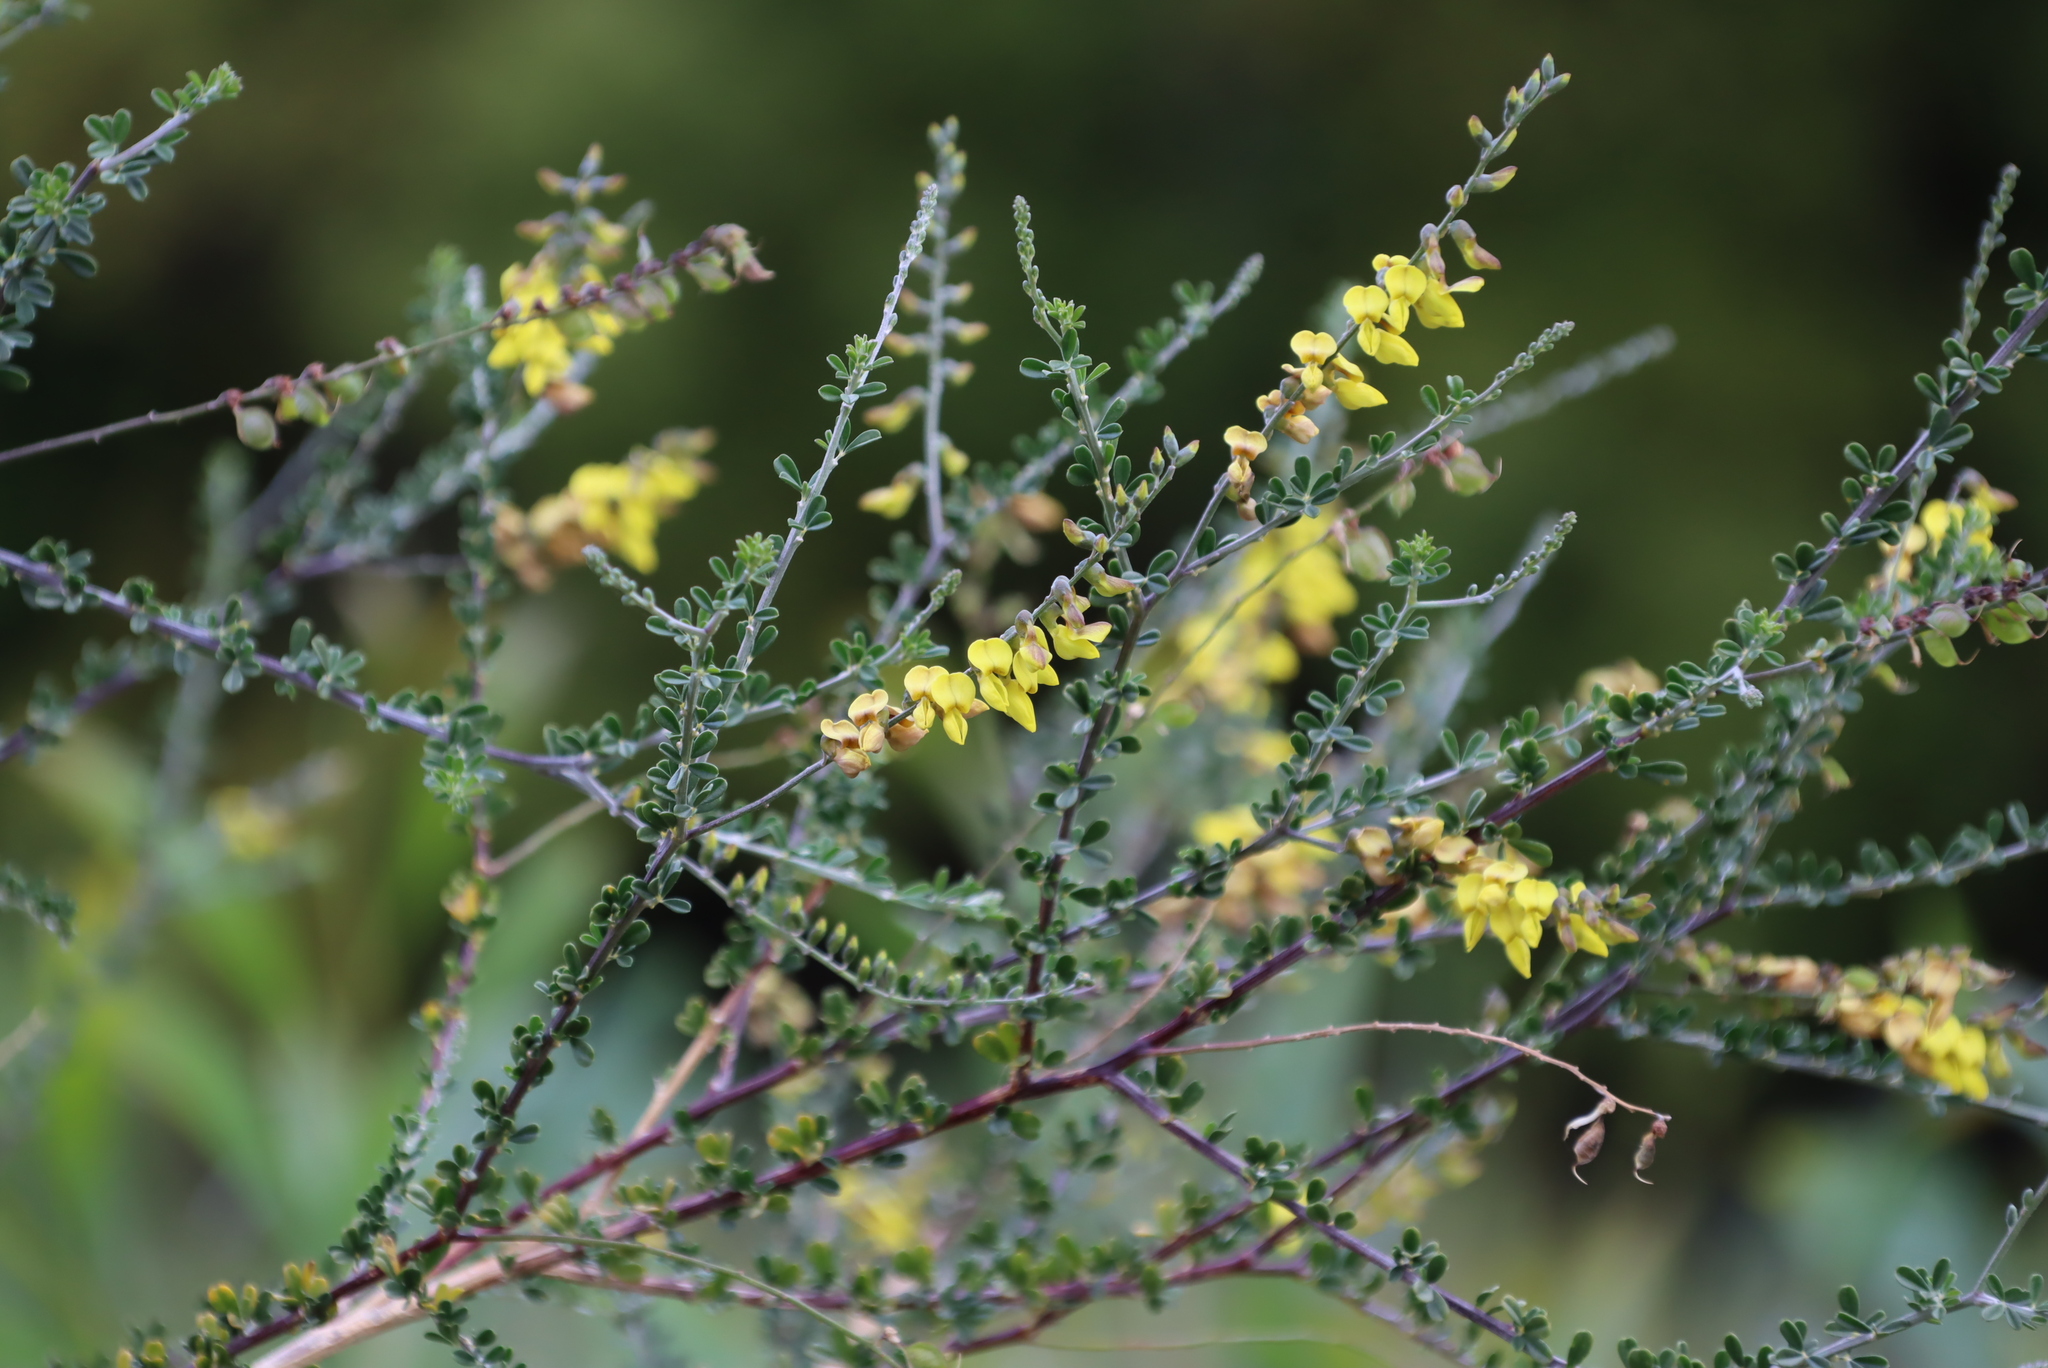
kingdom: Plantae
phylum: Tracheophyta
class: Magnoliopsida
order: Fabales
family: Fabaceae
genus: Wiborgia
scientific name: Wiborgia obcordata
